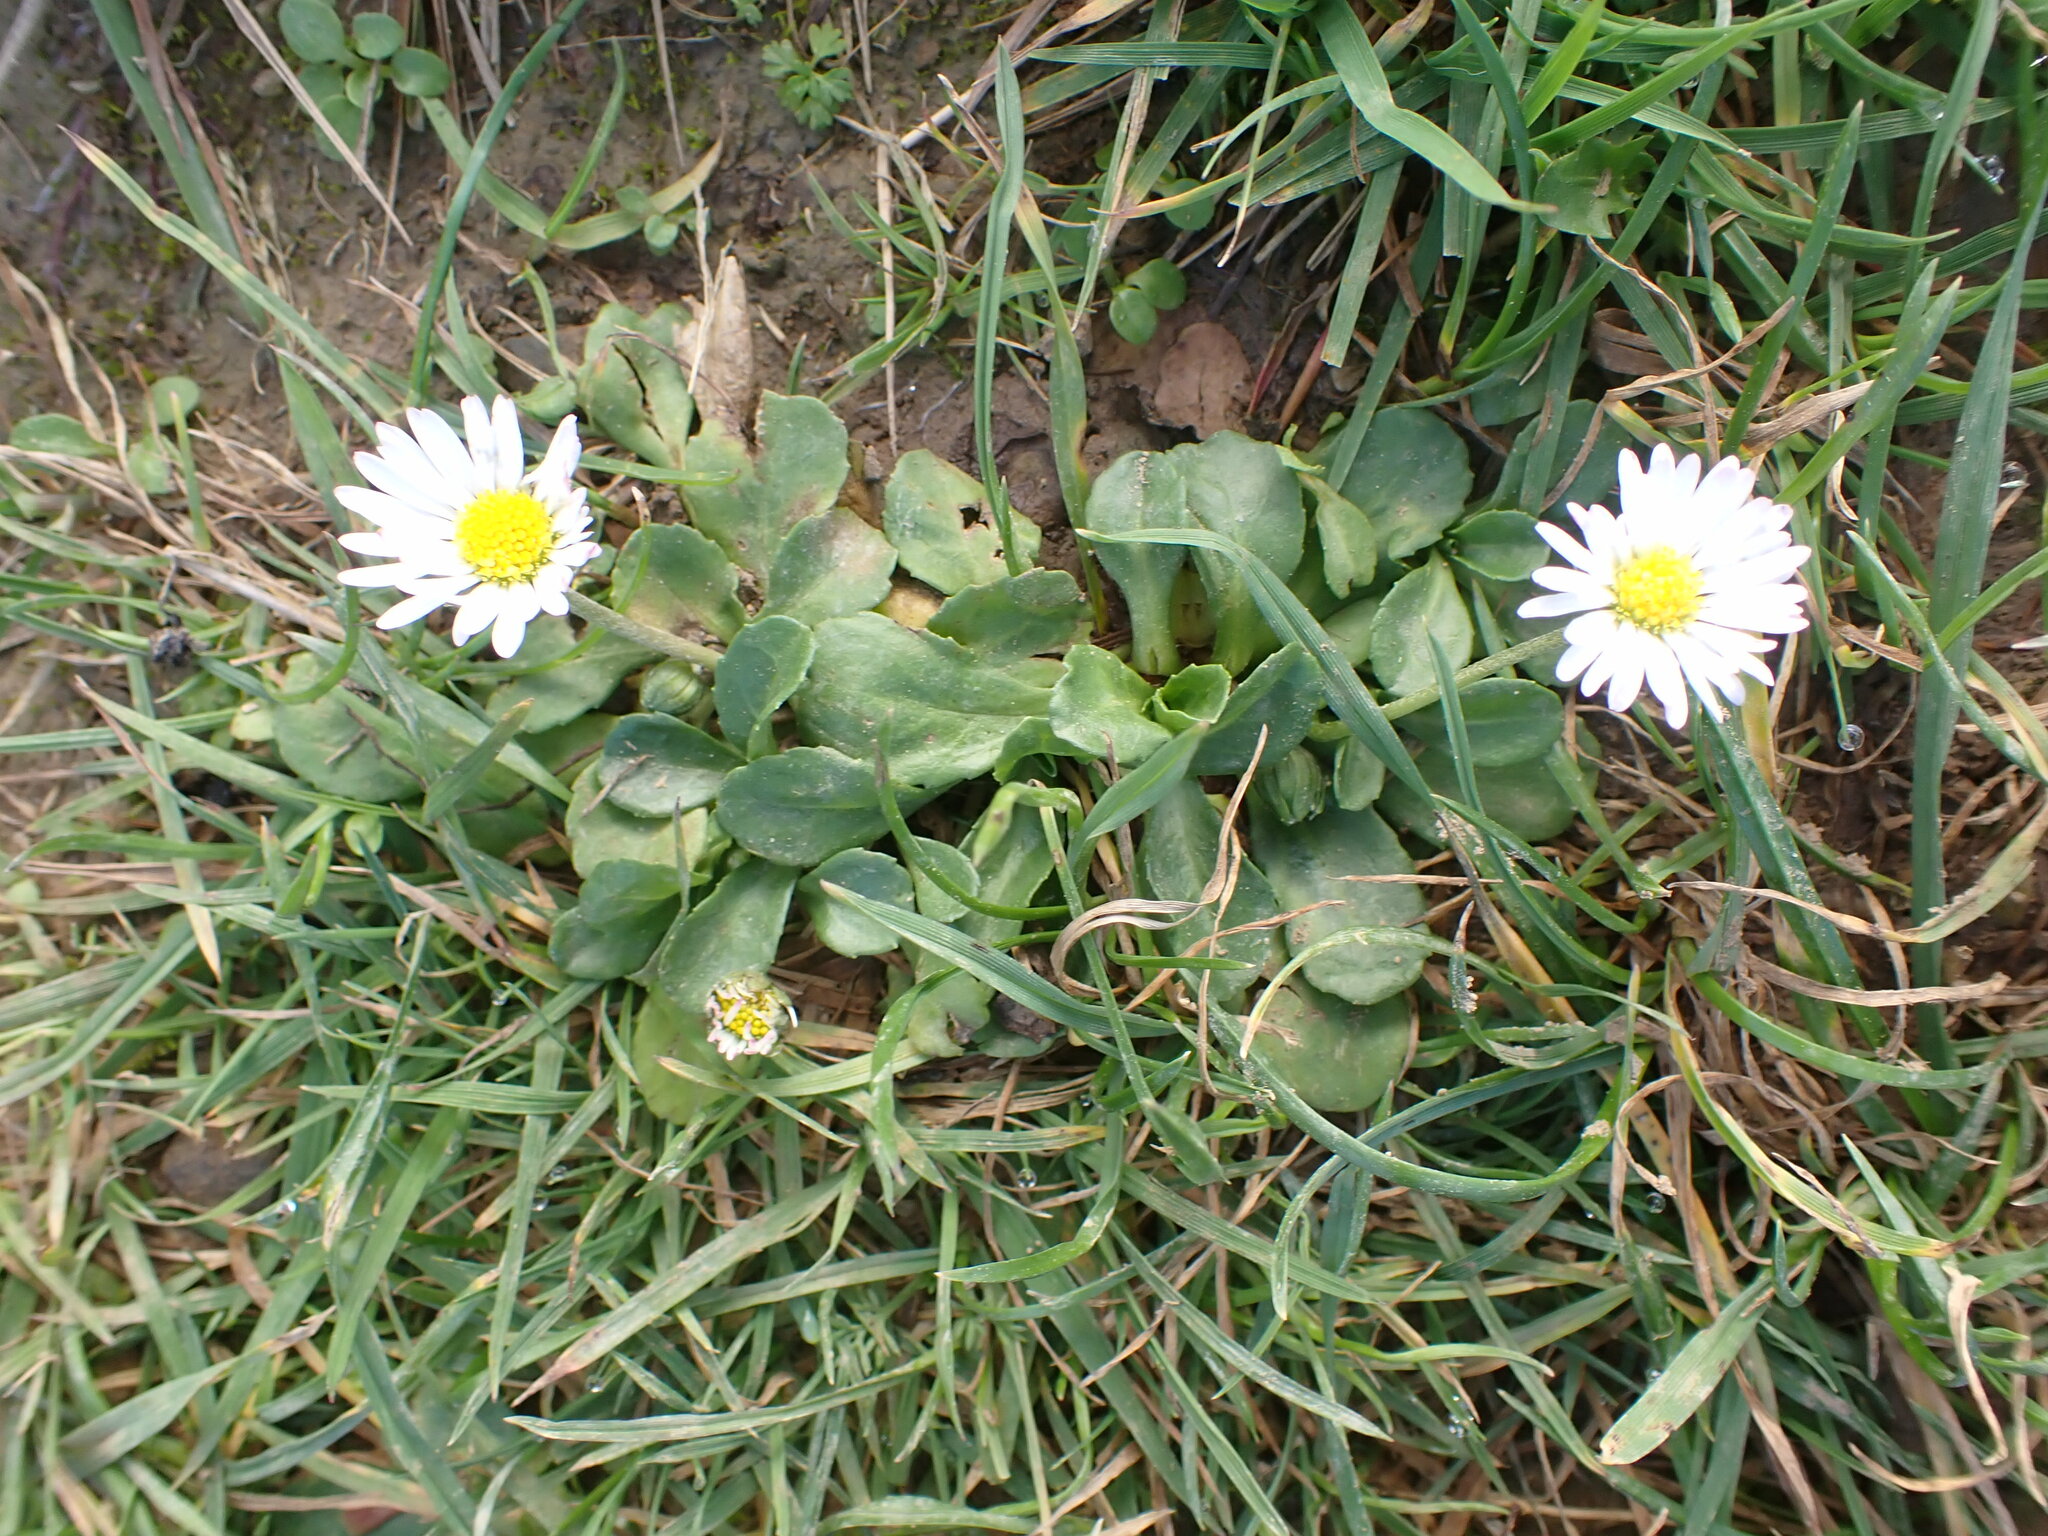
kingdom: Plantae
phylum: Tracheophyta
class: Magnoliopsida
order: Asterales
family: Asteraceae
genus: Bellis
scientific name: Bellis perennis
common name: Lawndaisy
